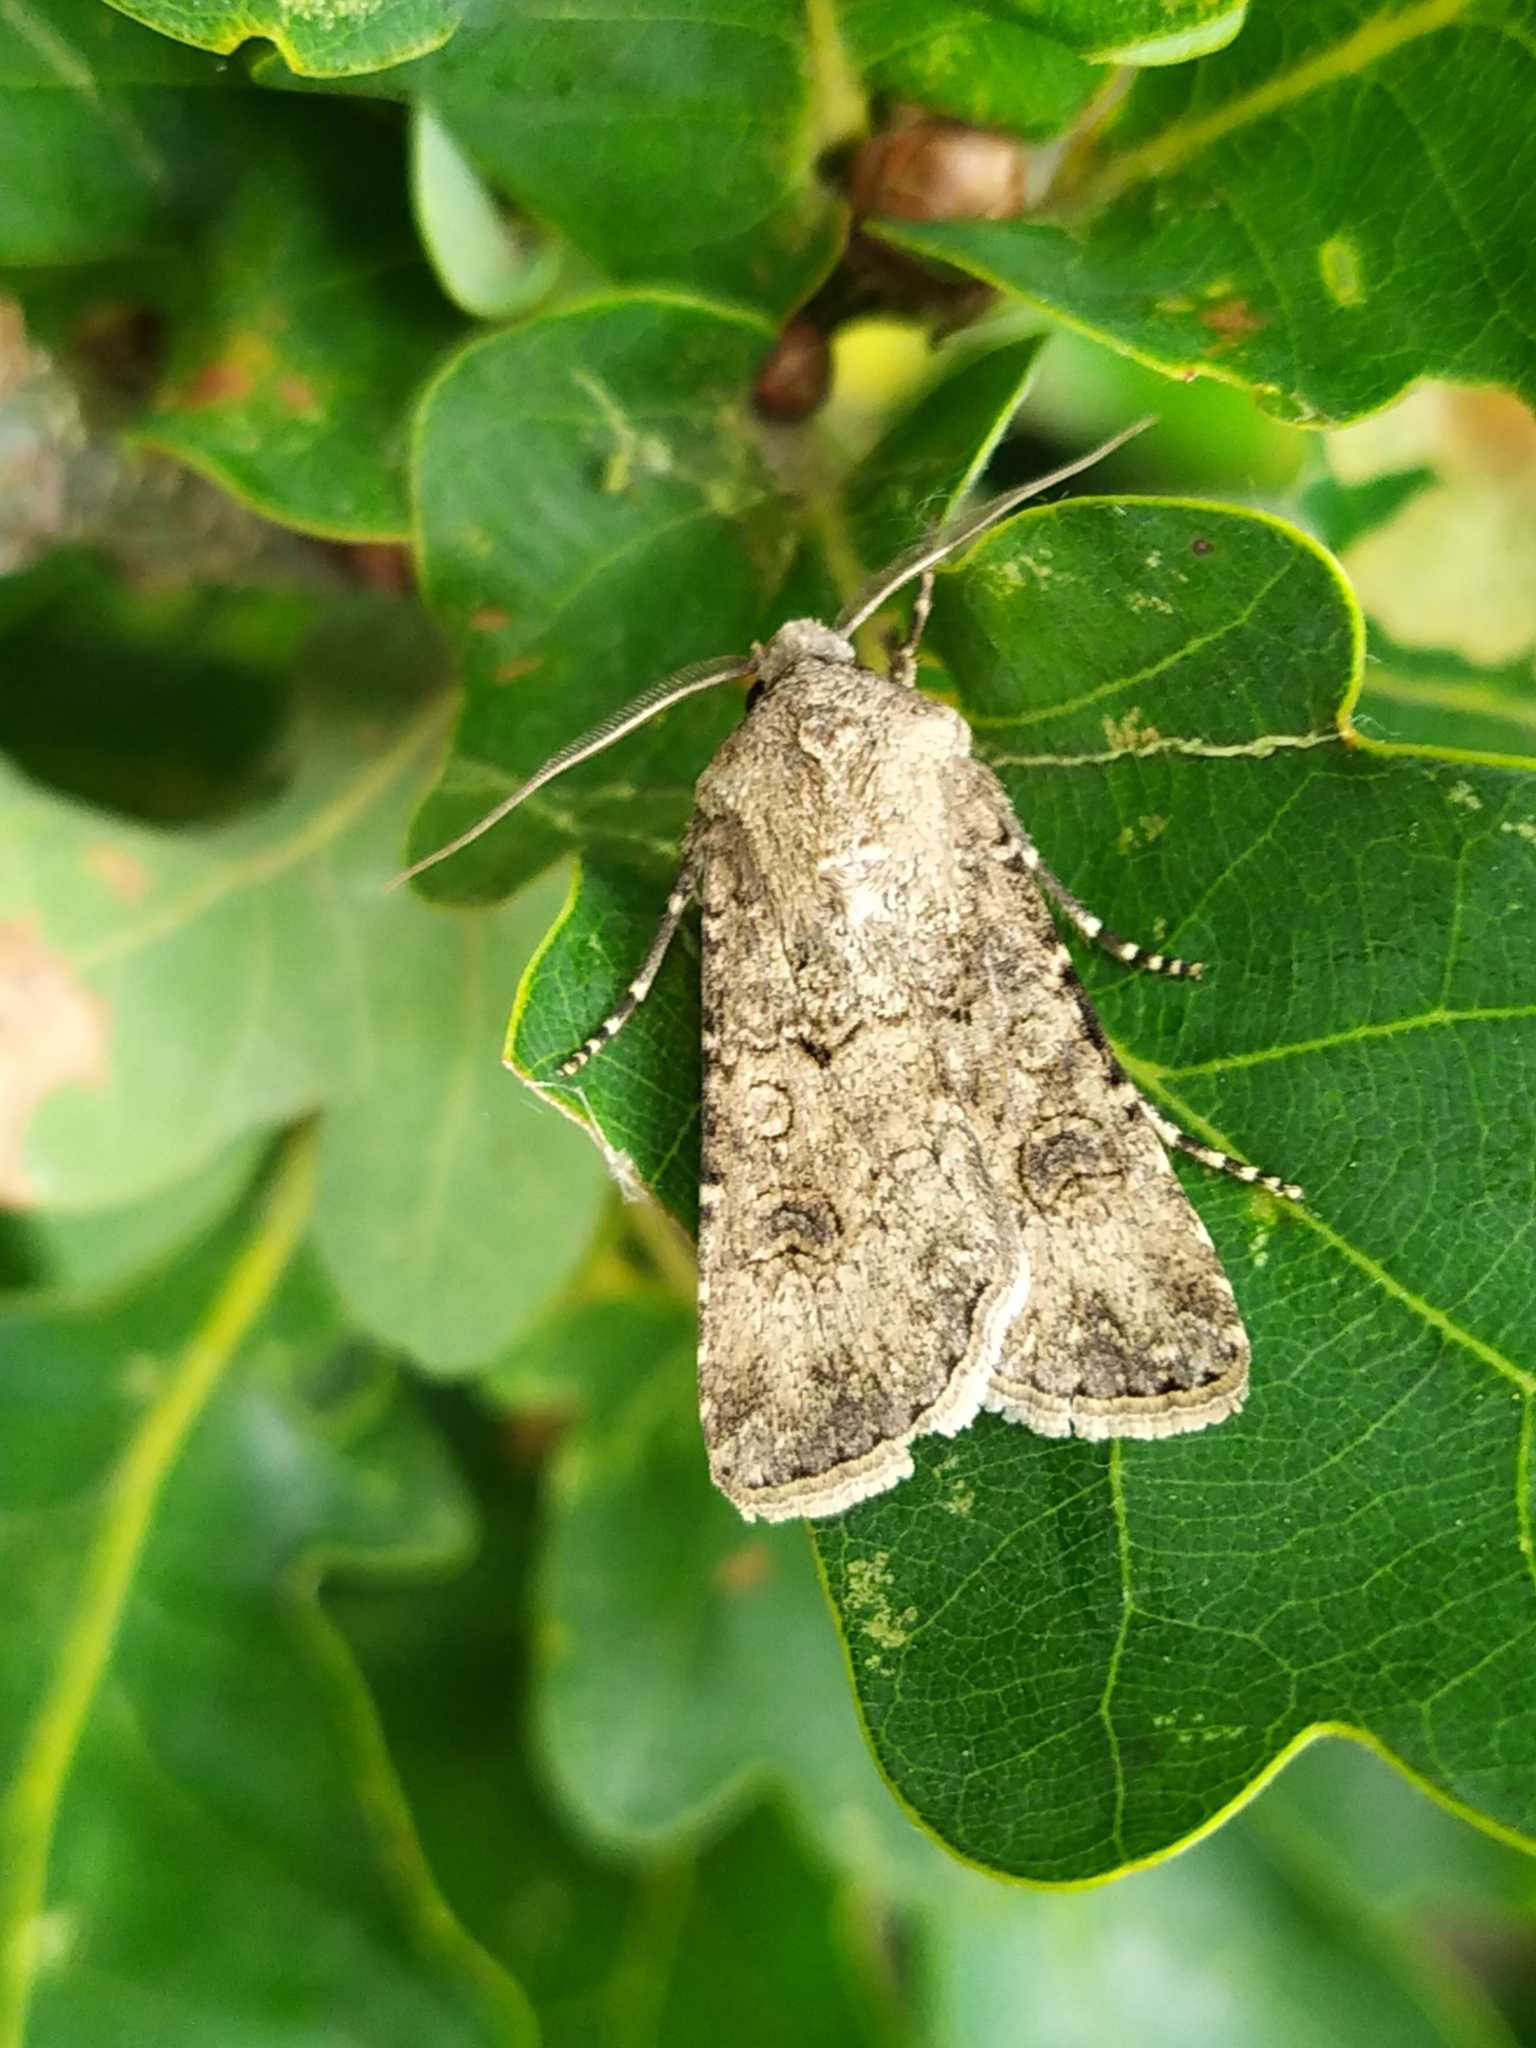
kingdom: Animalia
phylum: Arthropoda
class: Insecta
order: Lepidoptera
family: Noctuidae
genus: Agrotis
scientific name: Agrotis segetum
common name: Turnip moth
